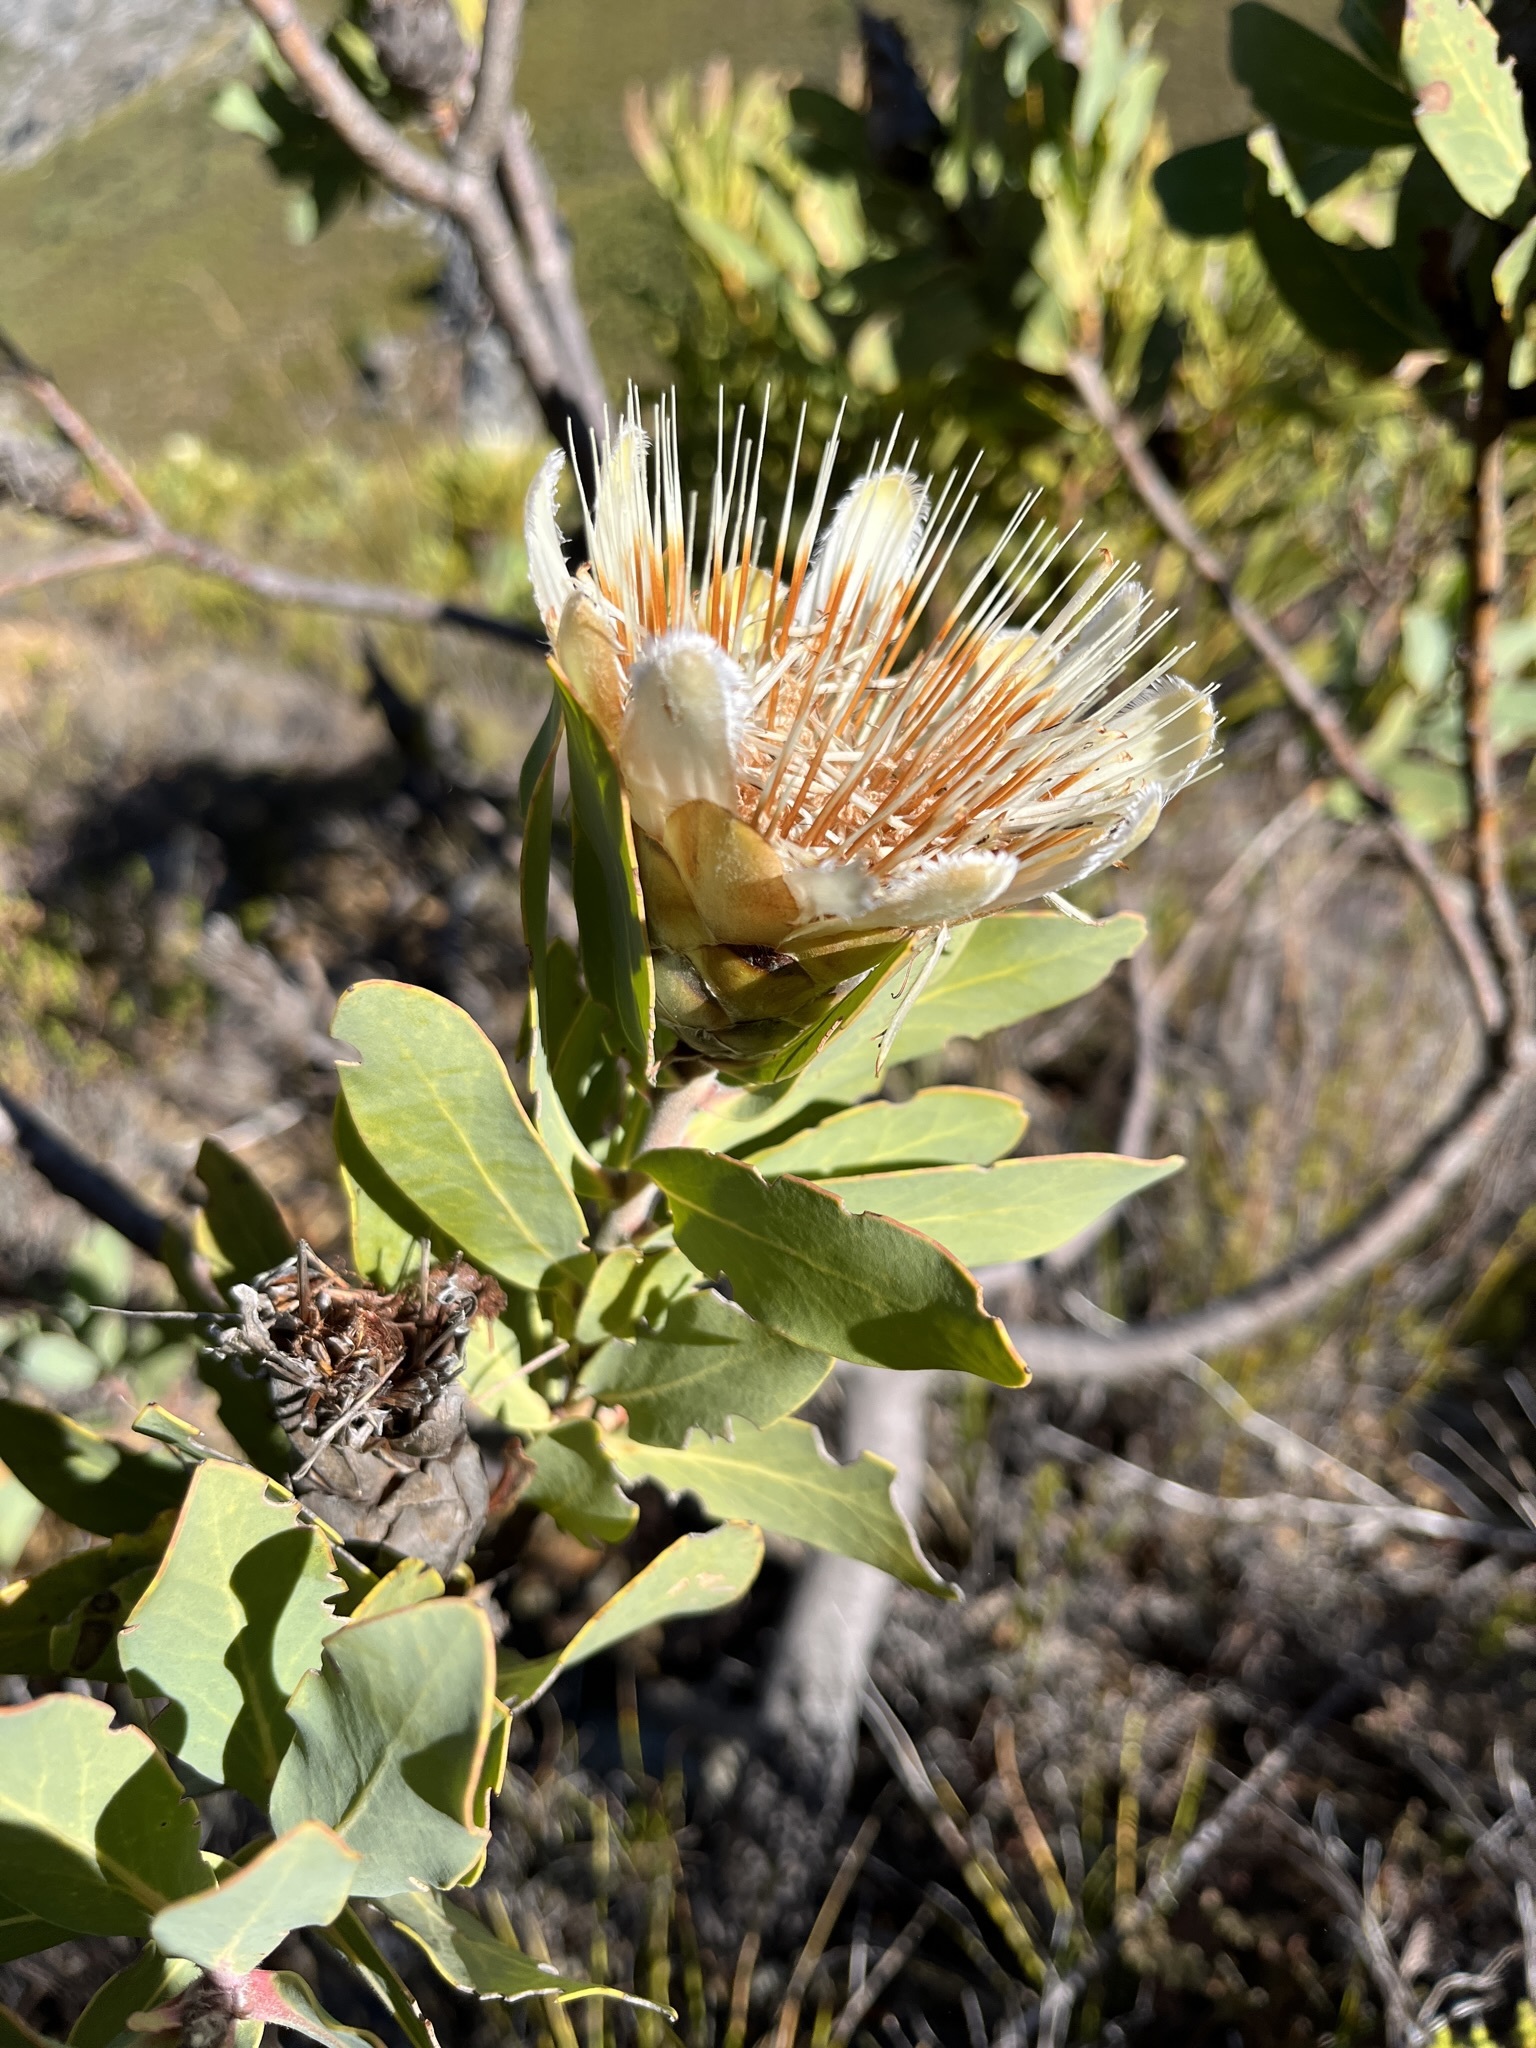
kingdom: Plantae
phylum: Tracheophyta
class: Magnoliopsida
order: Proteales
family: Proteaceae
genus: Protea
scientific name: Protea lacticolor
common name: Hottentot sugarbush
